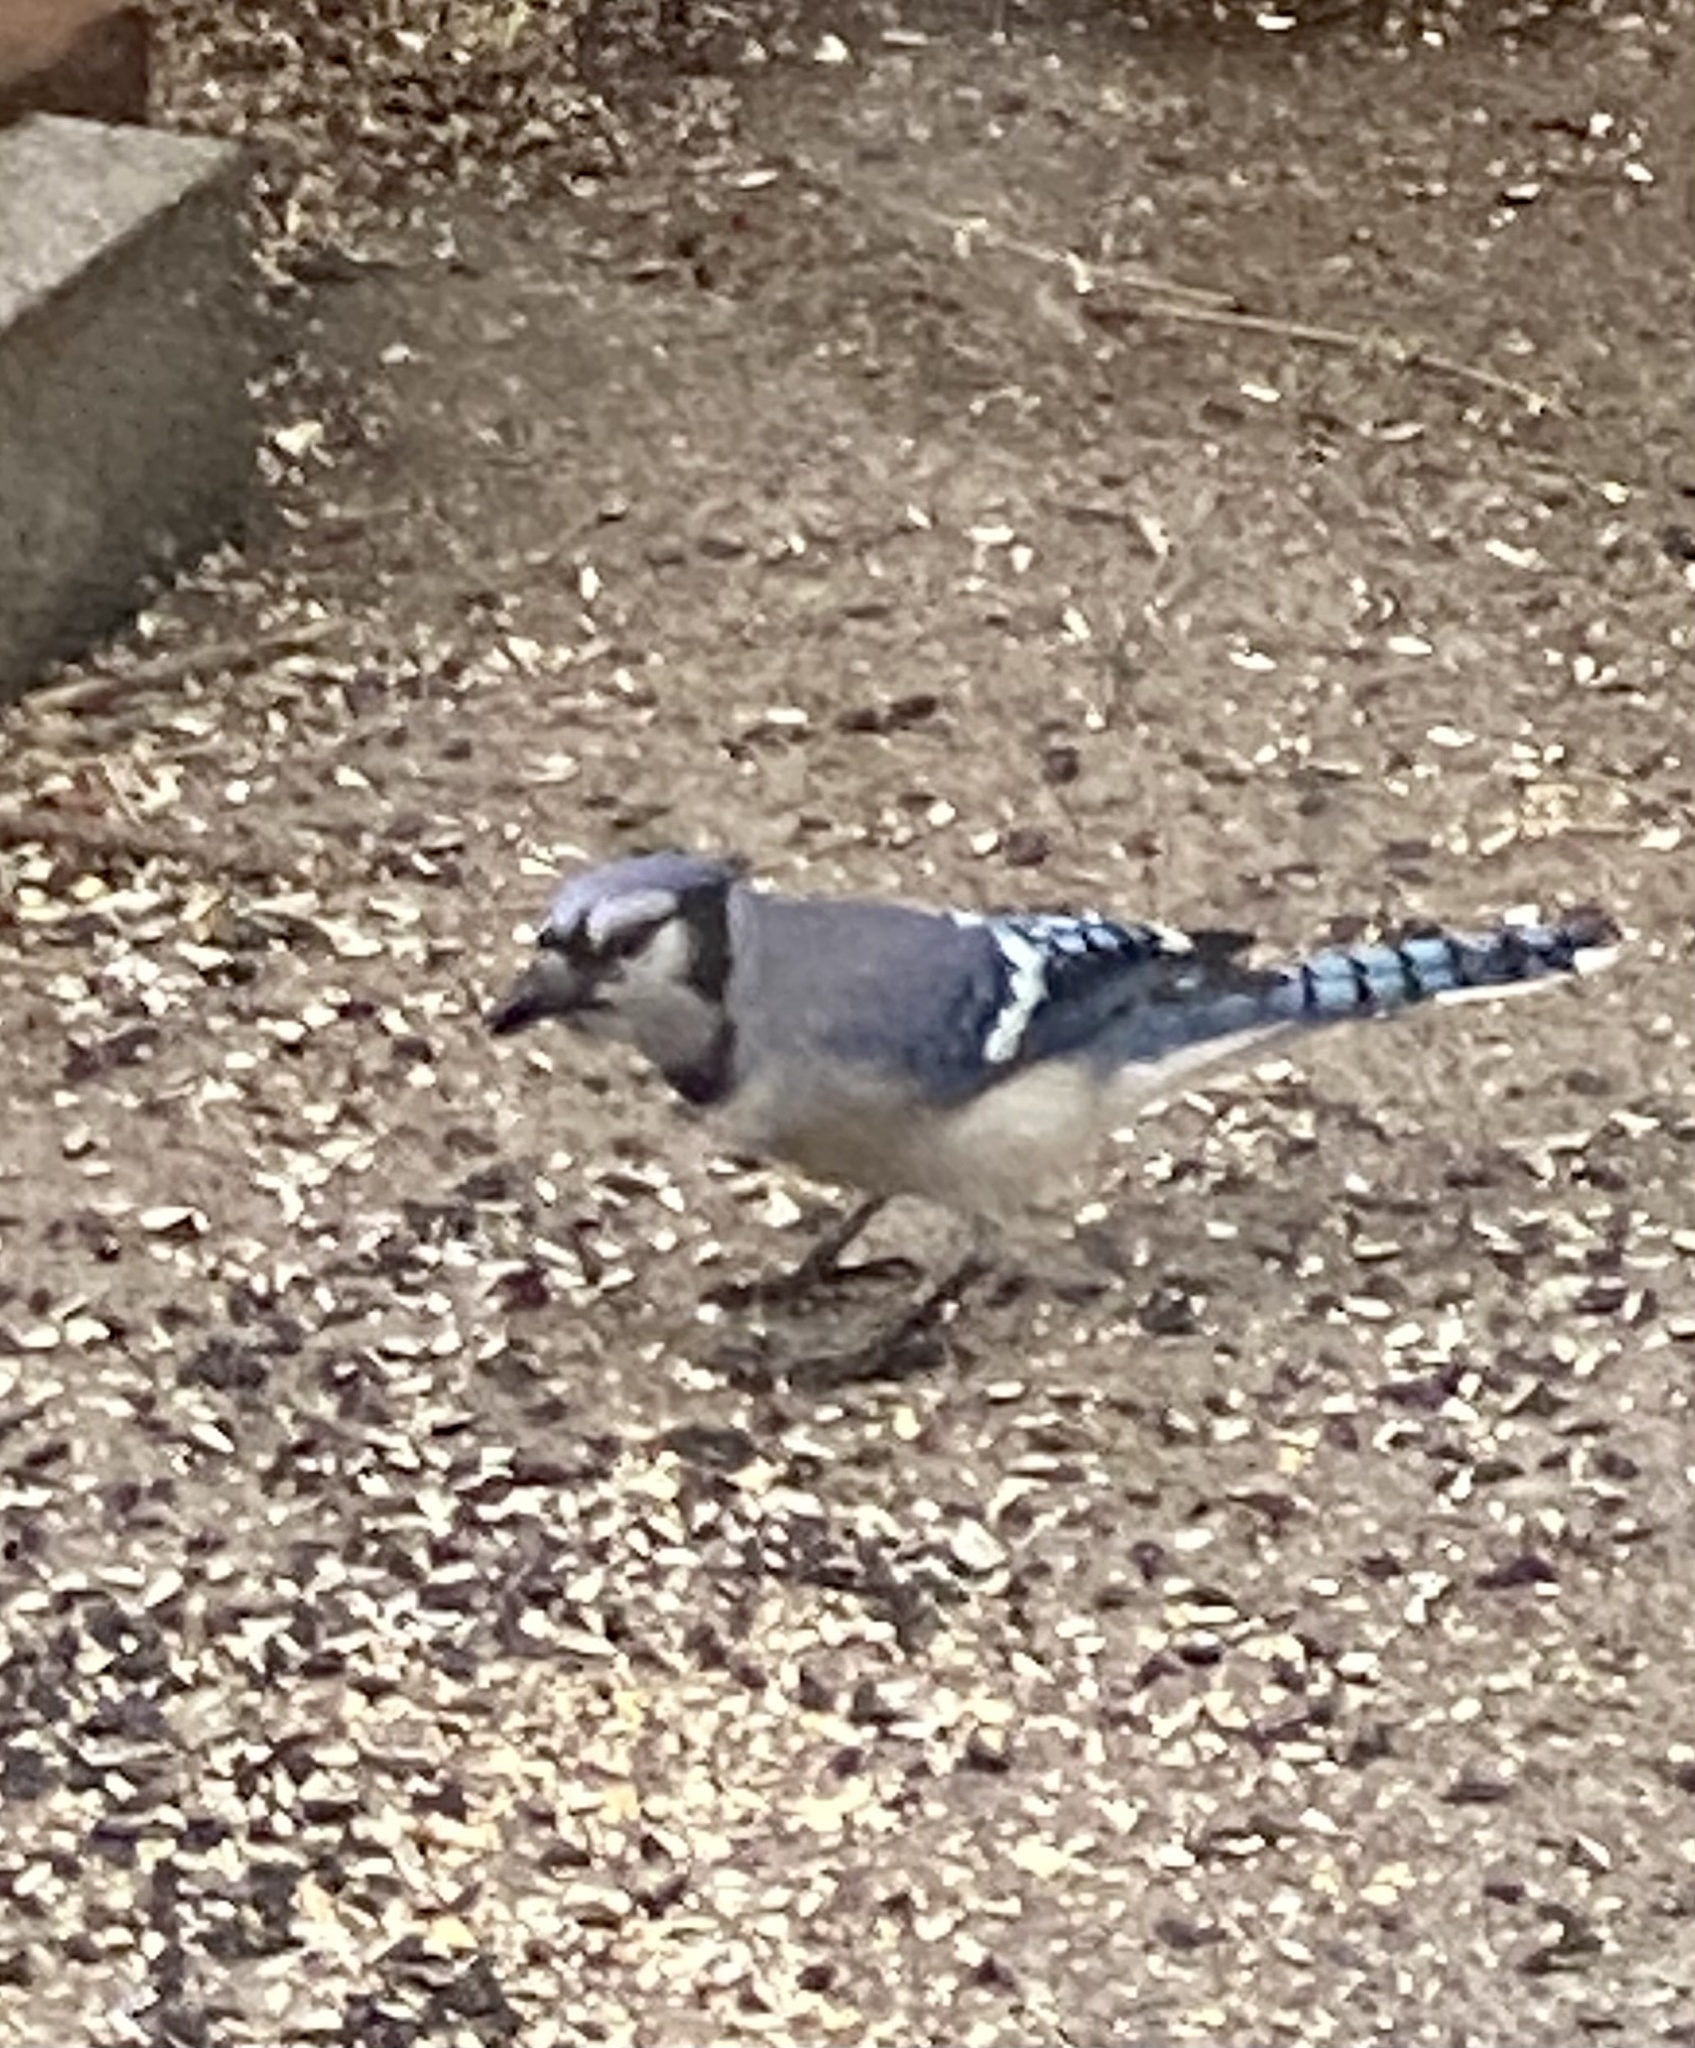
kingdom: Animalia
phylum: Chordata
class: Aves
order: Passeriformes
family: Corvidae
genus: Cyanocitta
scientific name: Cyanocitta cristata
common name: Blue jay
